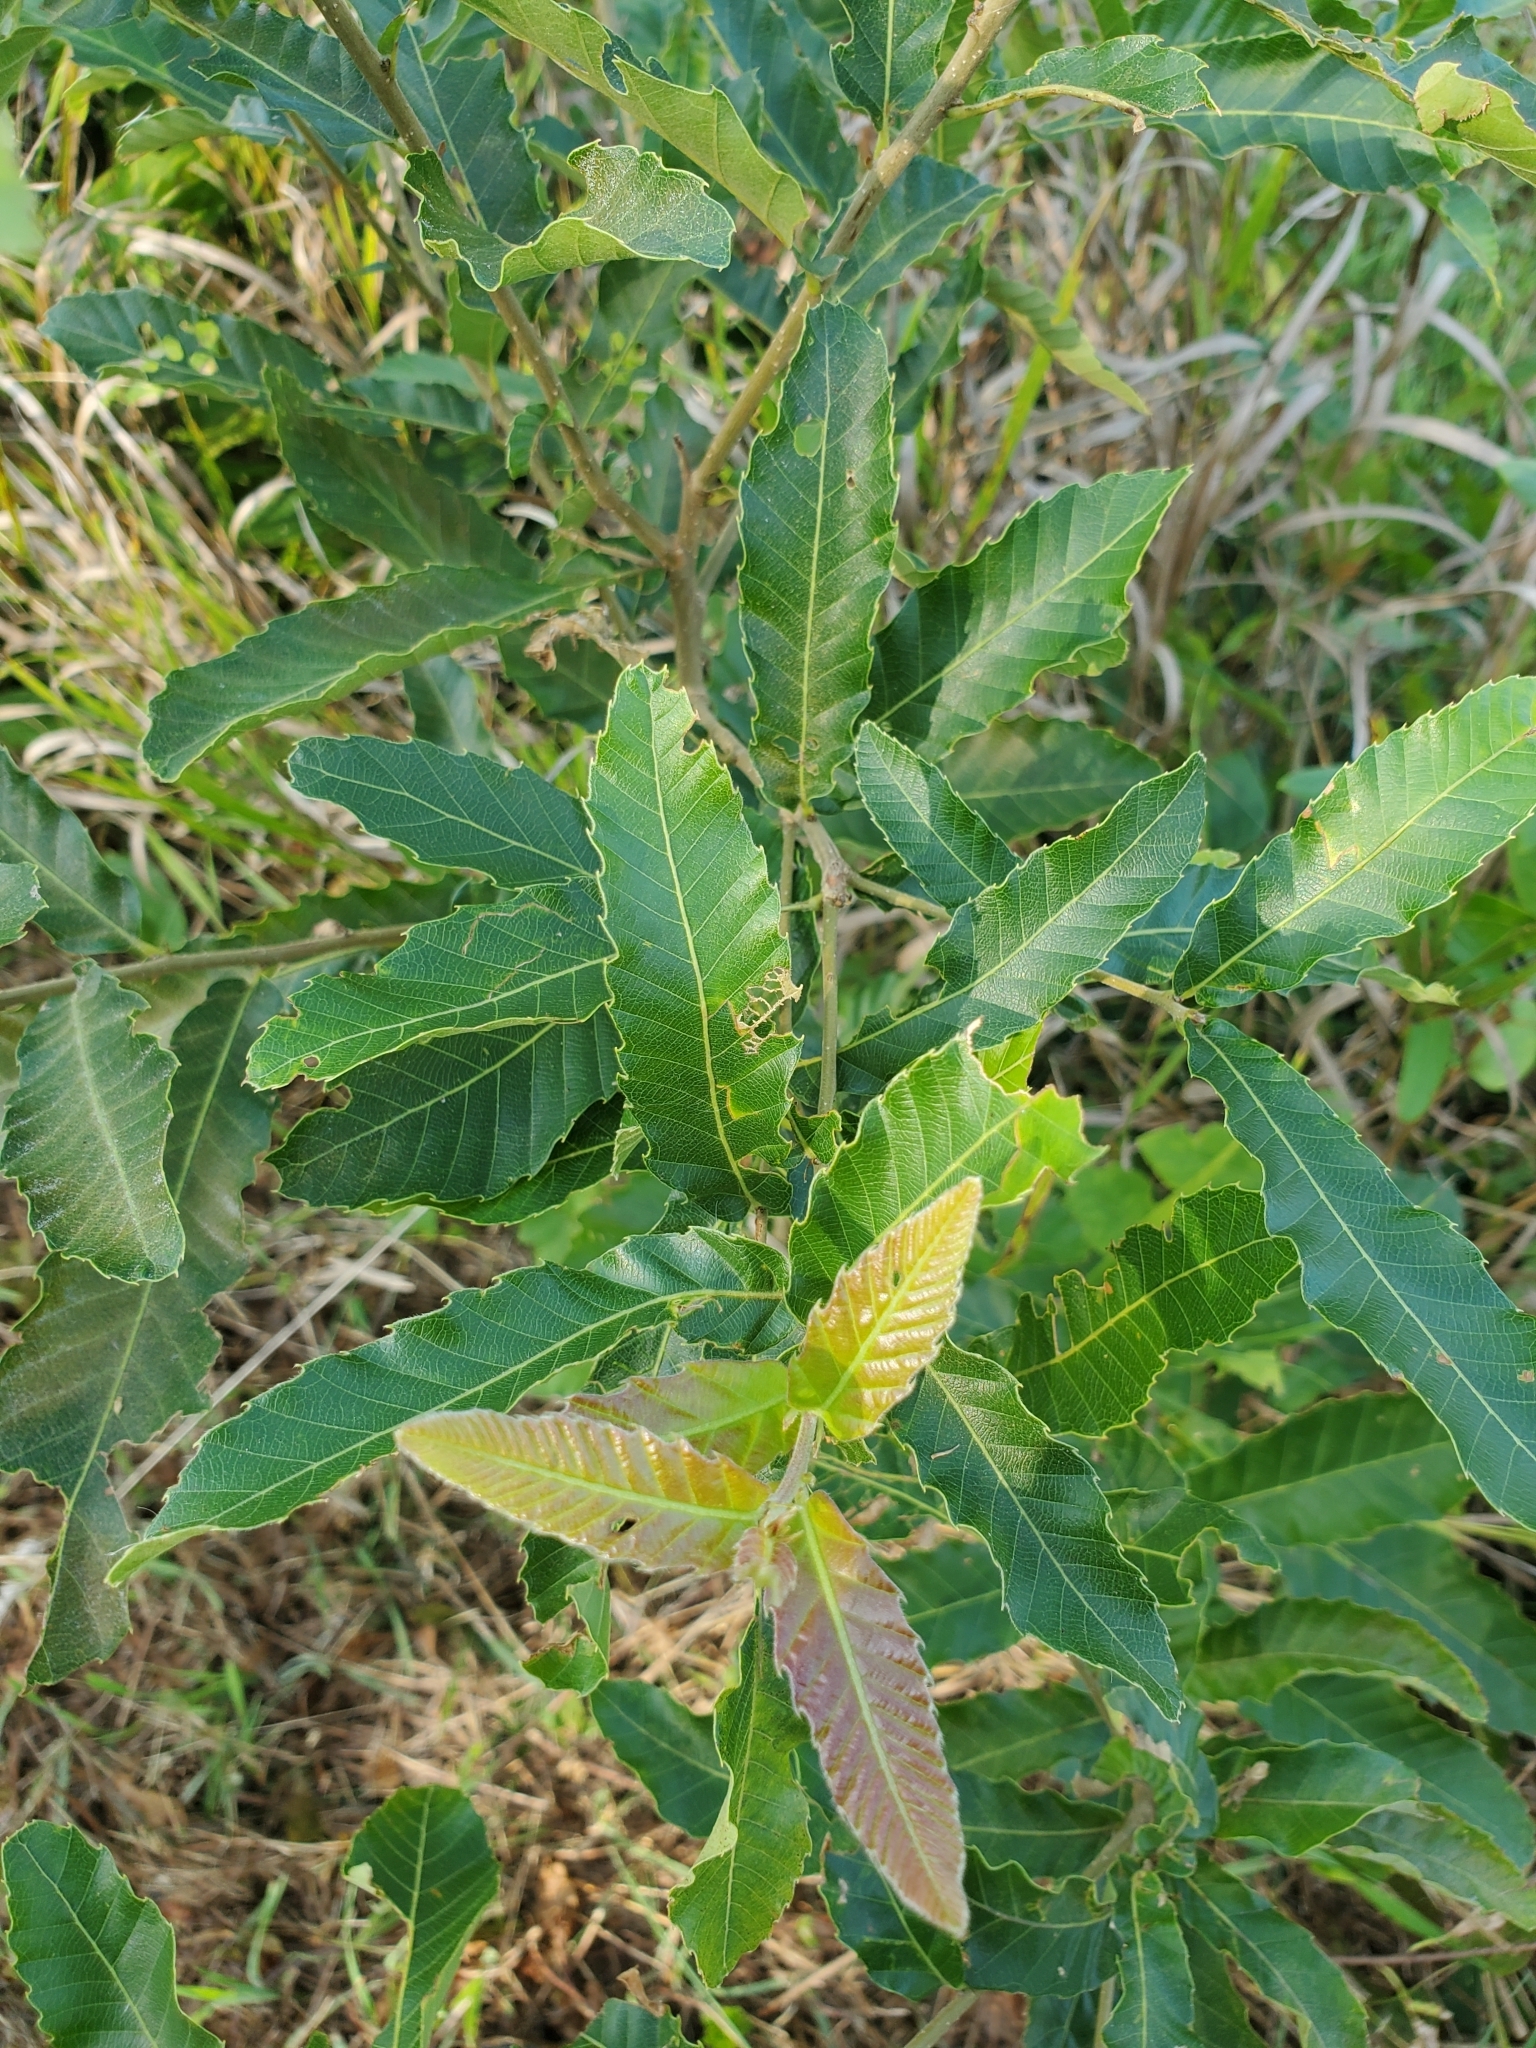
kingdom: Plantae
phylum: Tracheophyta
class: Magnoliopsida
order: Fagales
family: Fagaceae
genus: Quercus
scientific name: Quercus acutissima
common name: Sawtooth oak
